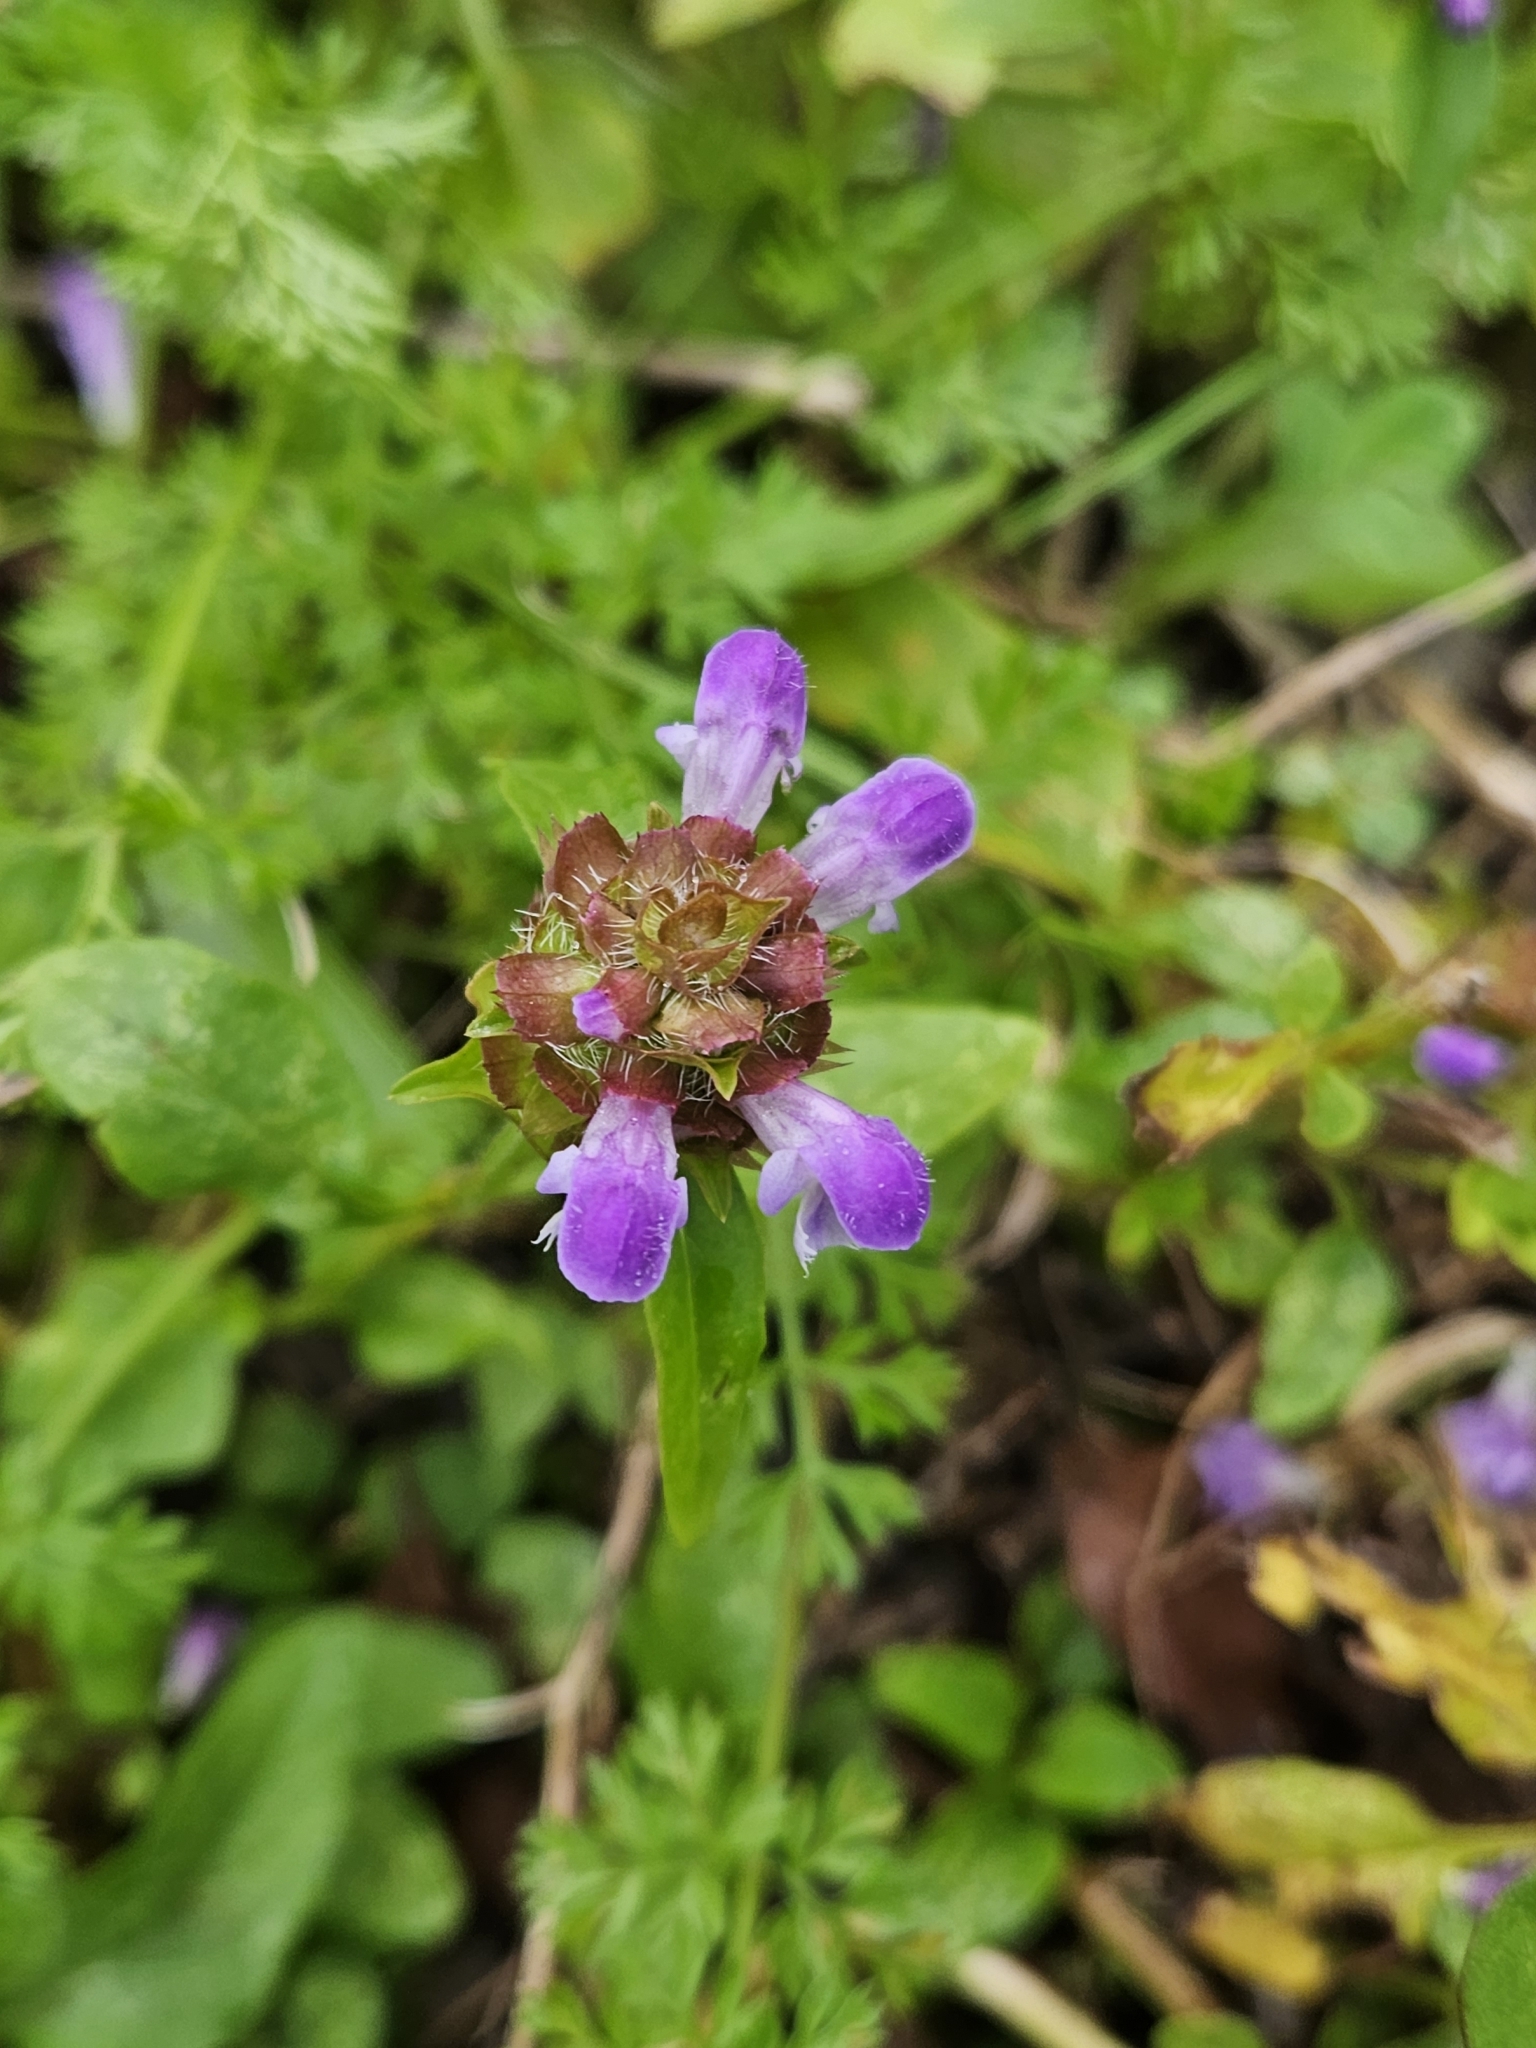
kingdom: Plantae
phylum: Tracheophyta
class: Magnoliopsida
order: Lamiales
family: Lamiaceae
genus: Prunella
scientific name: Prunella vulgaris
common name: Heal-all
